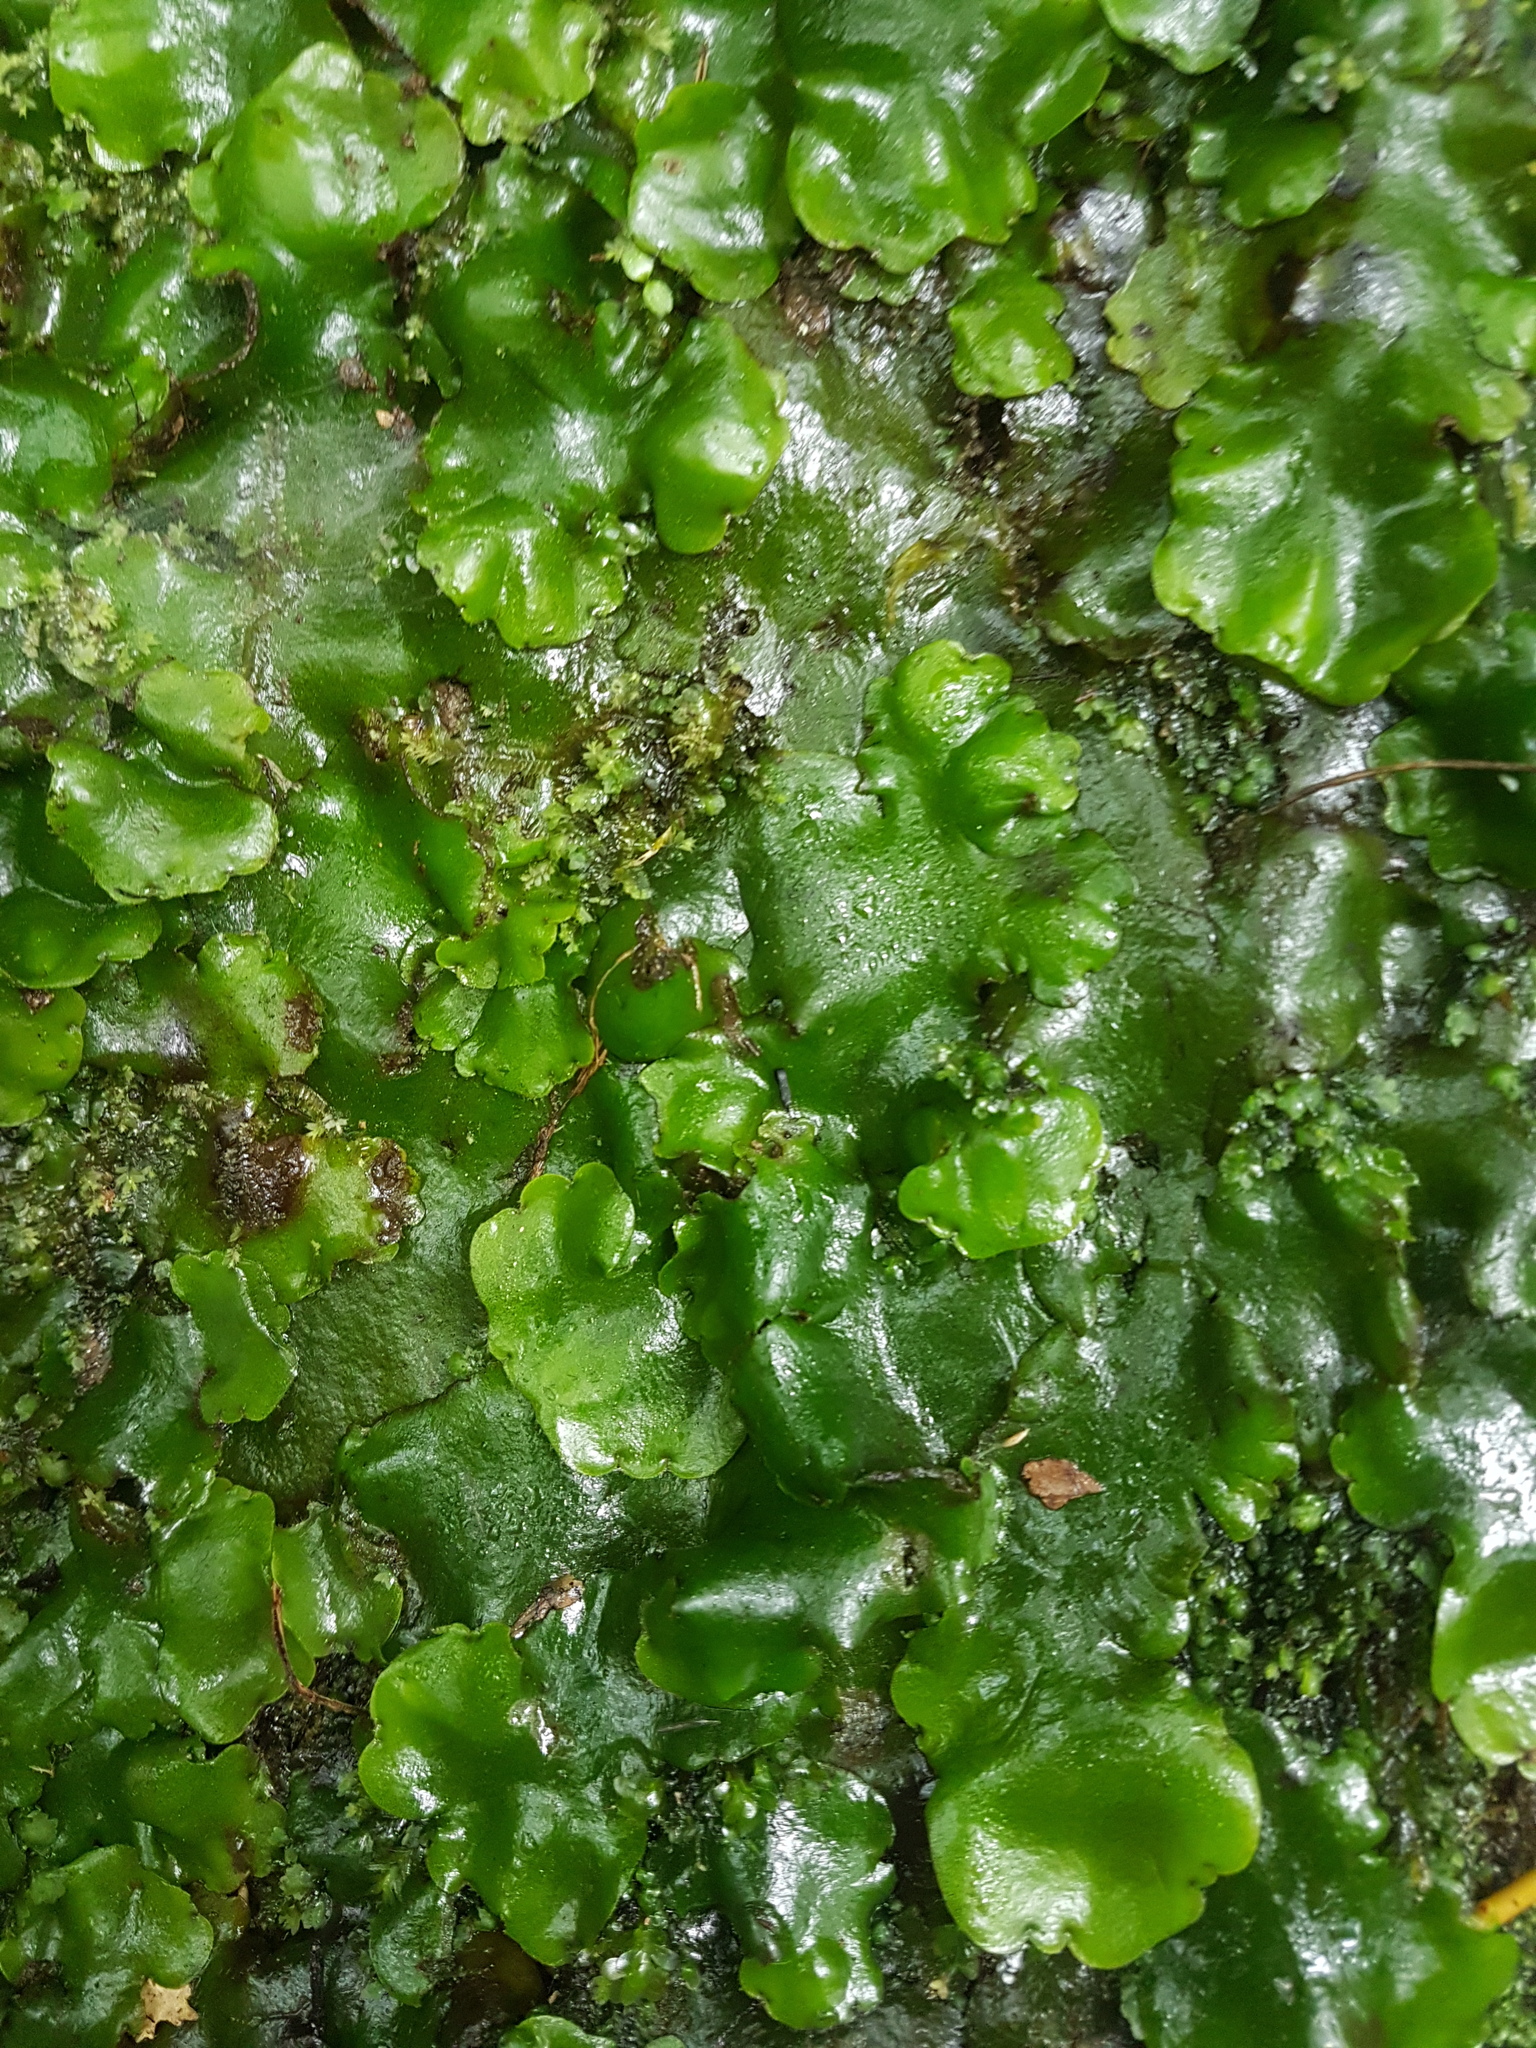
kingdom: Plantae
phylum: Marchantiophyta
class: Marchantiopsida
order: Marchantiales
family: Monocleaceae
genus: Monoclea
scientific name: Monoclea forsteri
